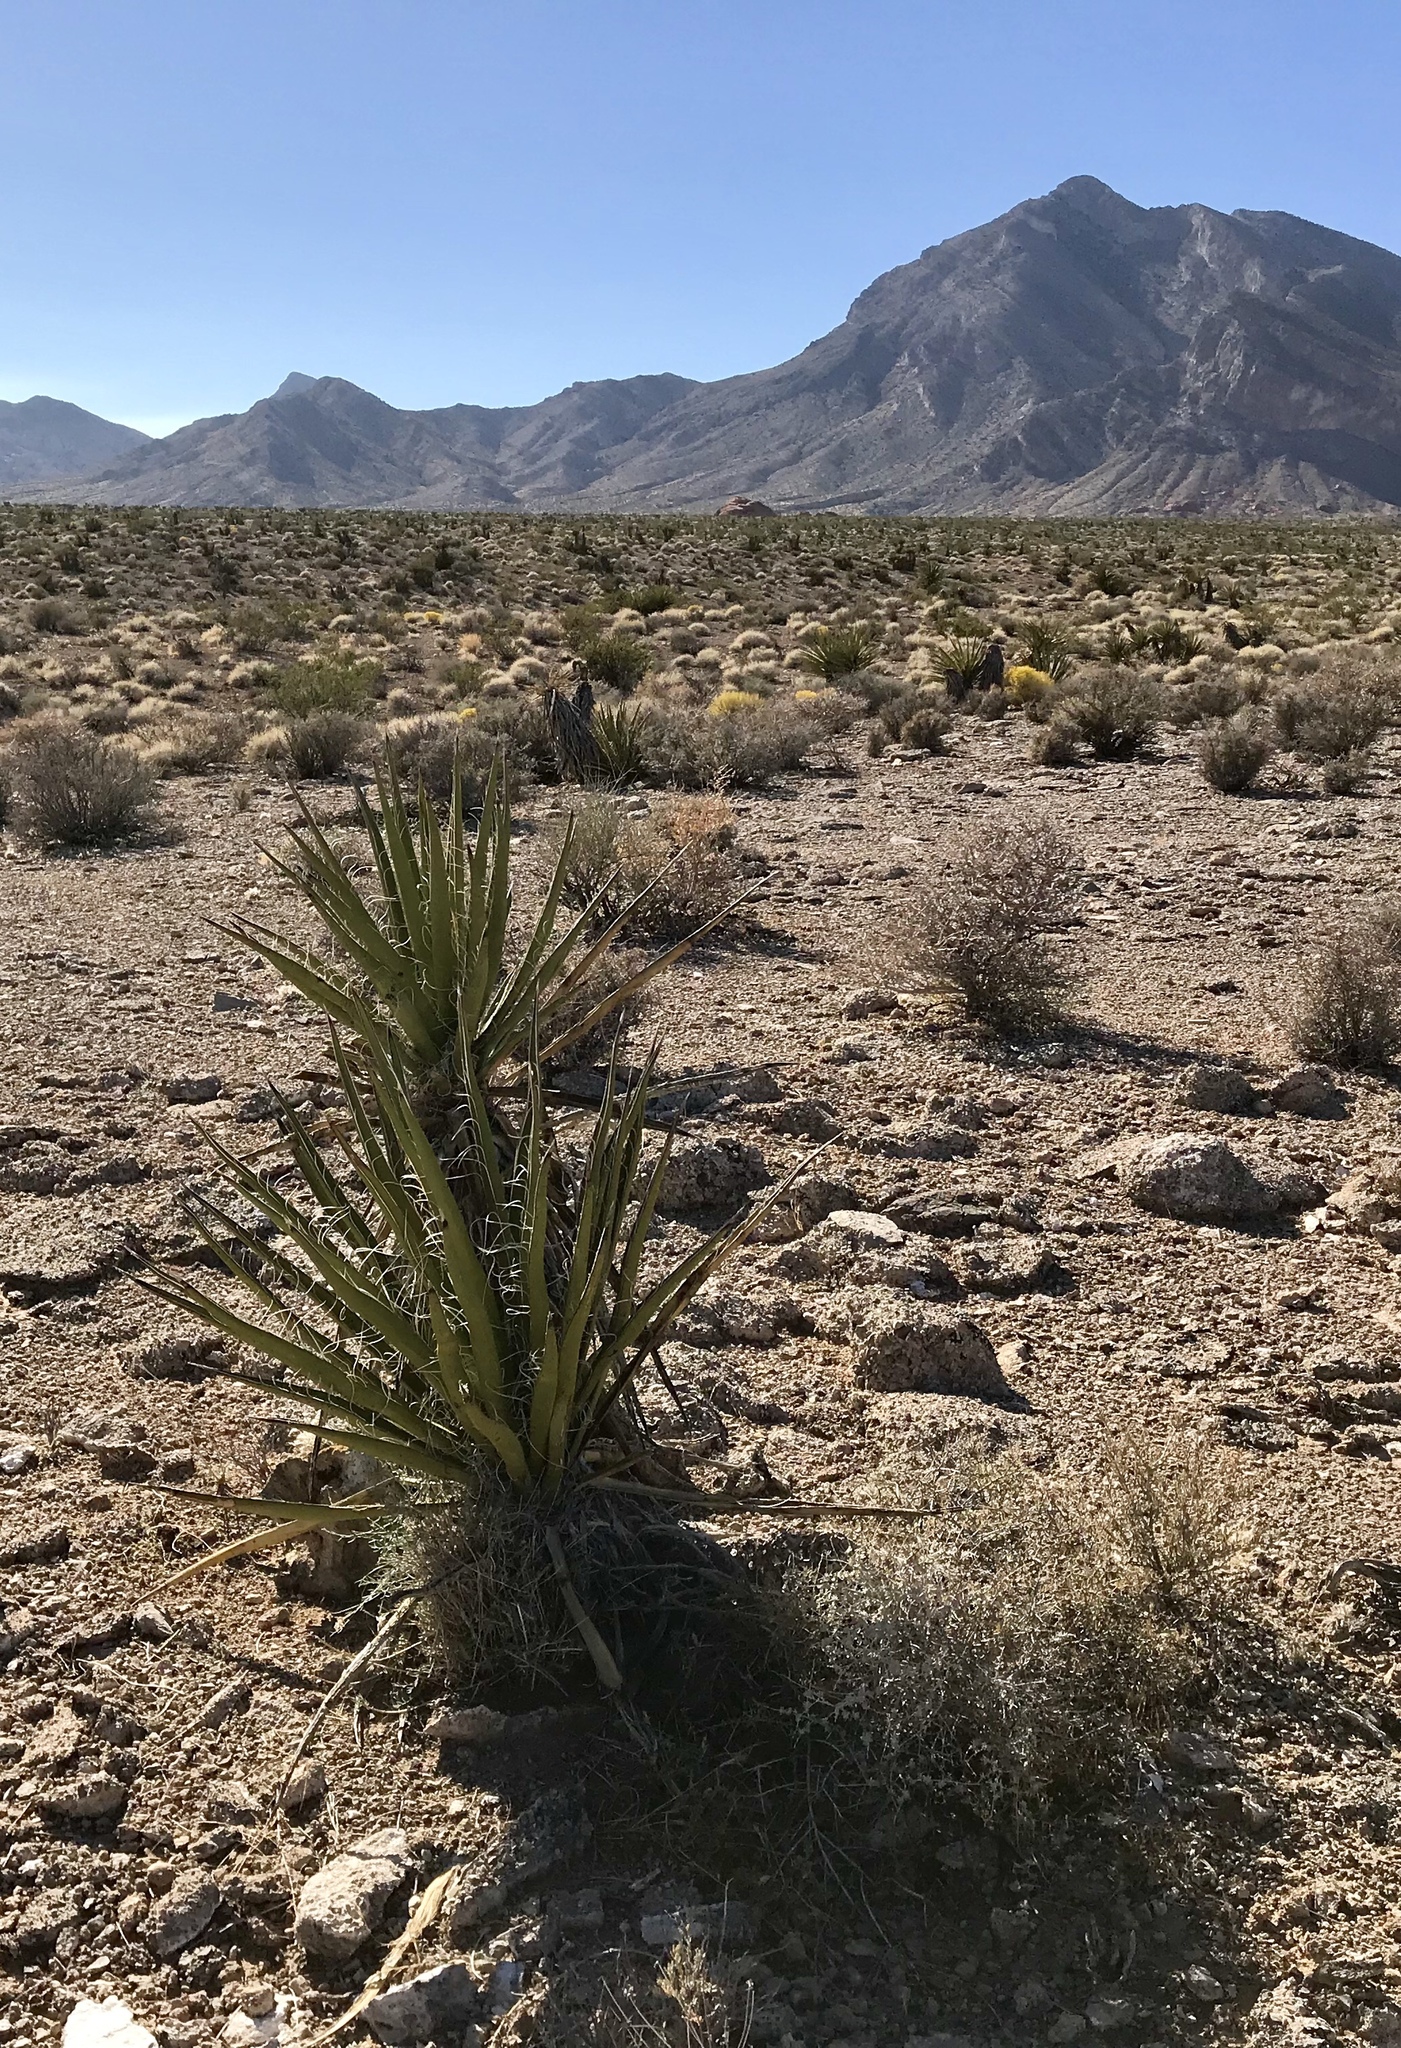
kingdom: Plantae
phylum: Tracheophyta
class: Liliopsida
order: Asparagales
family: Asparagaceae
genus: Yucca
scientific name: Yucca schidigera
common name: Mojave yucca
